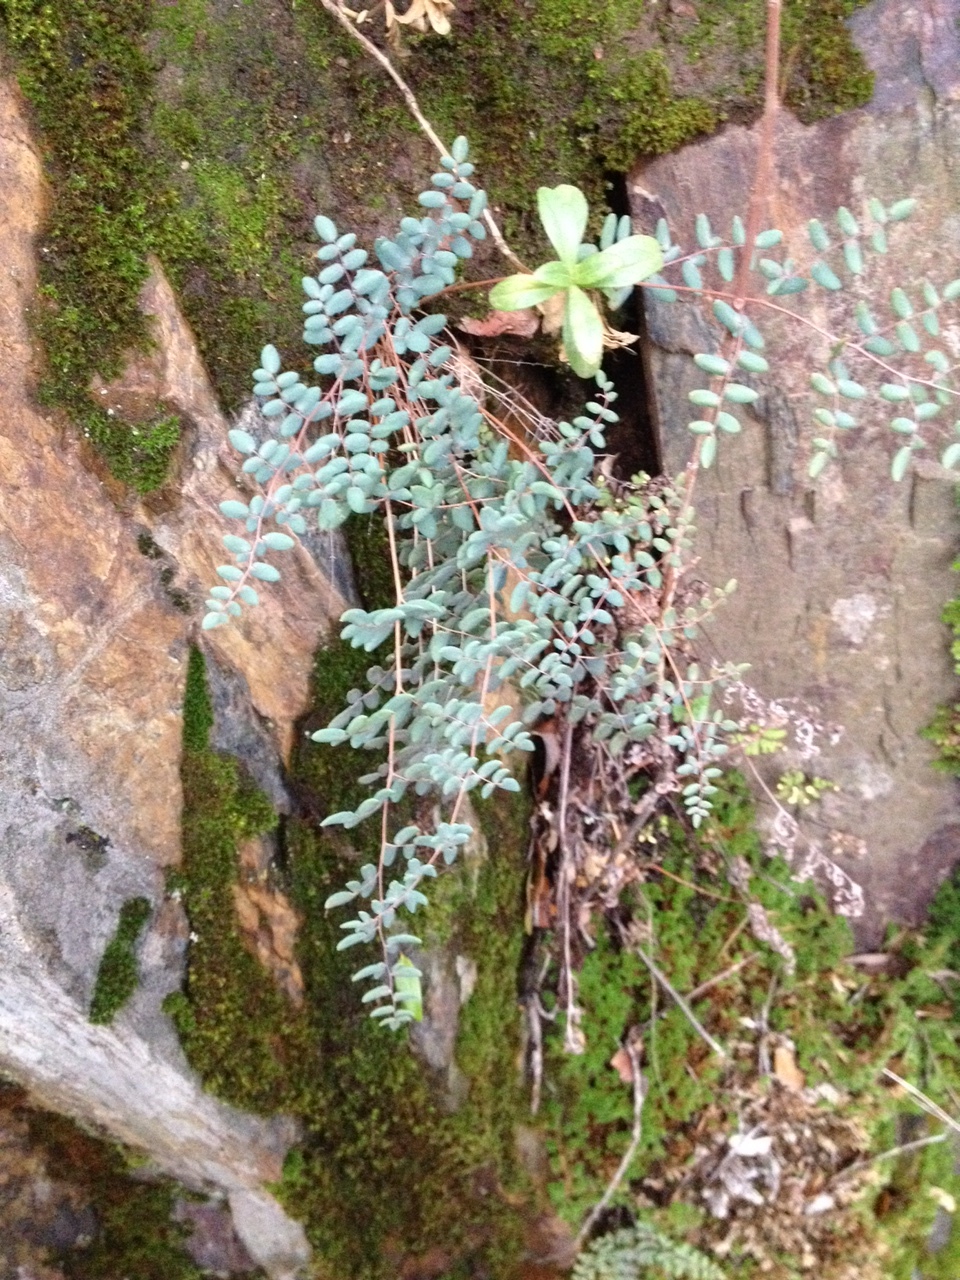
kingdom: Plantae
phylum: Tracheophyta
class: Polypodiopsida
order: Polypodiales
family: Pteridaceae
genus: Pellaea
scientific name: Pellaea andromedifolia
